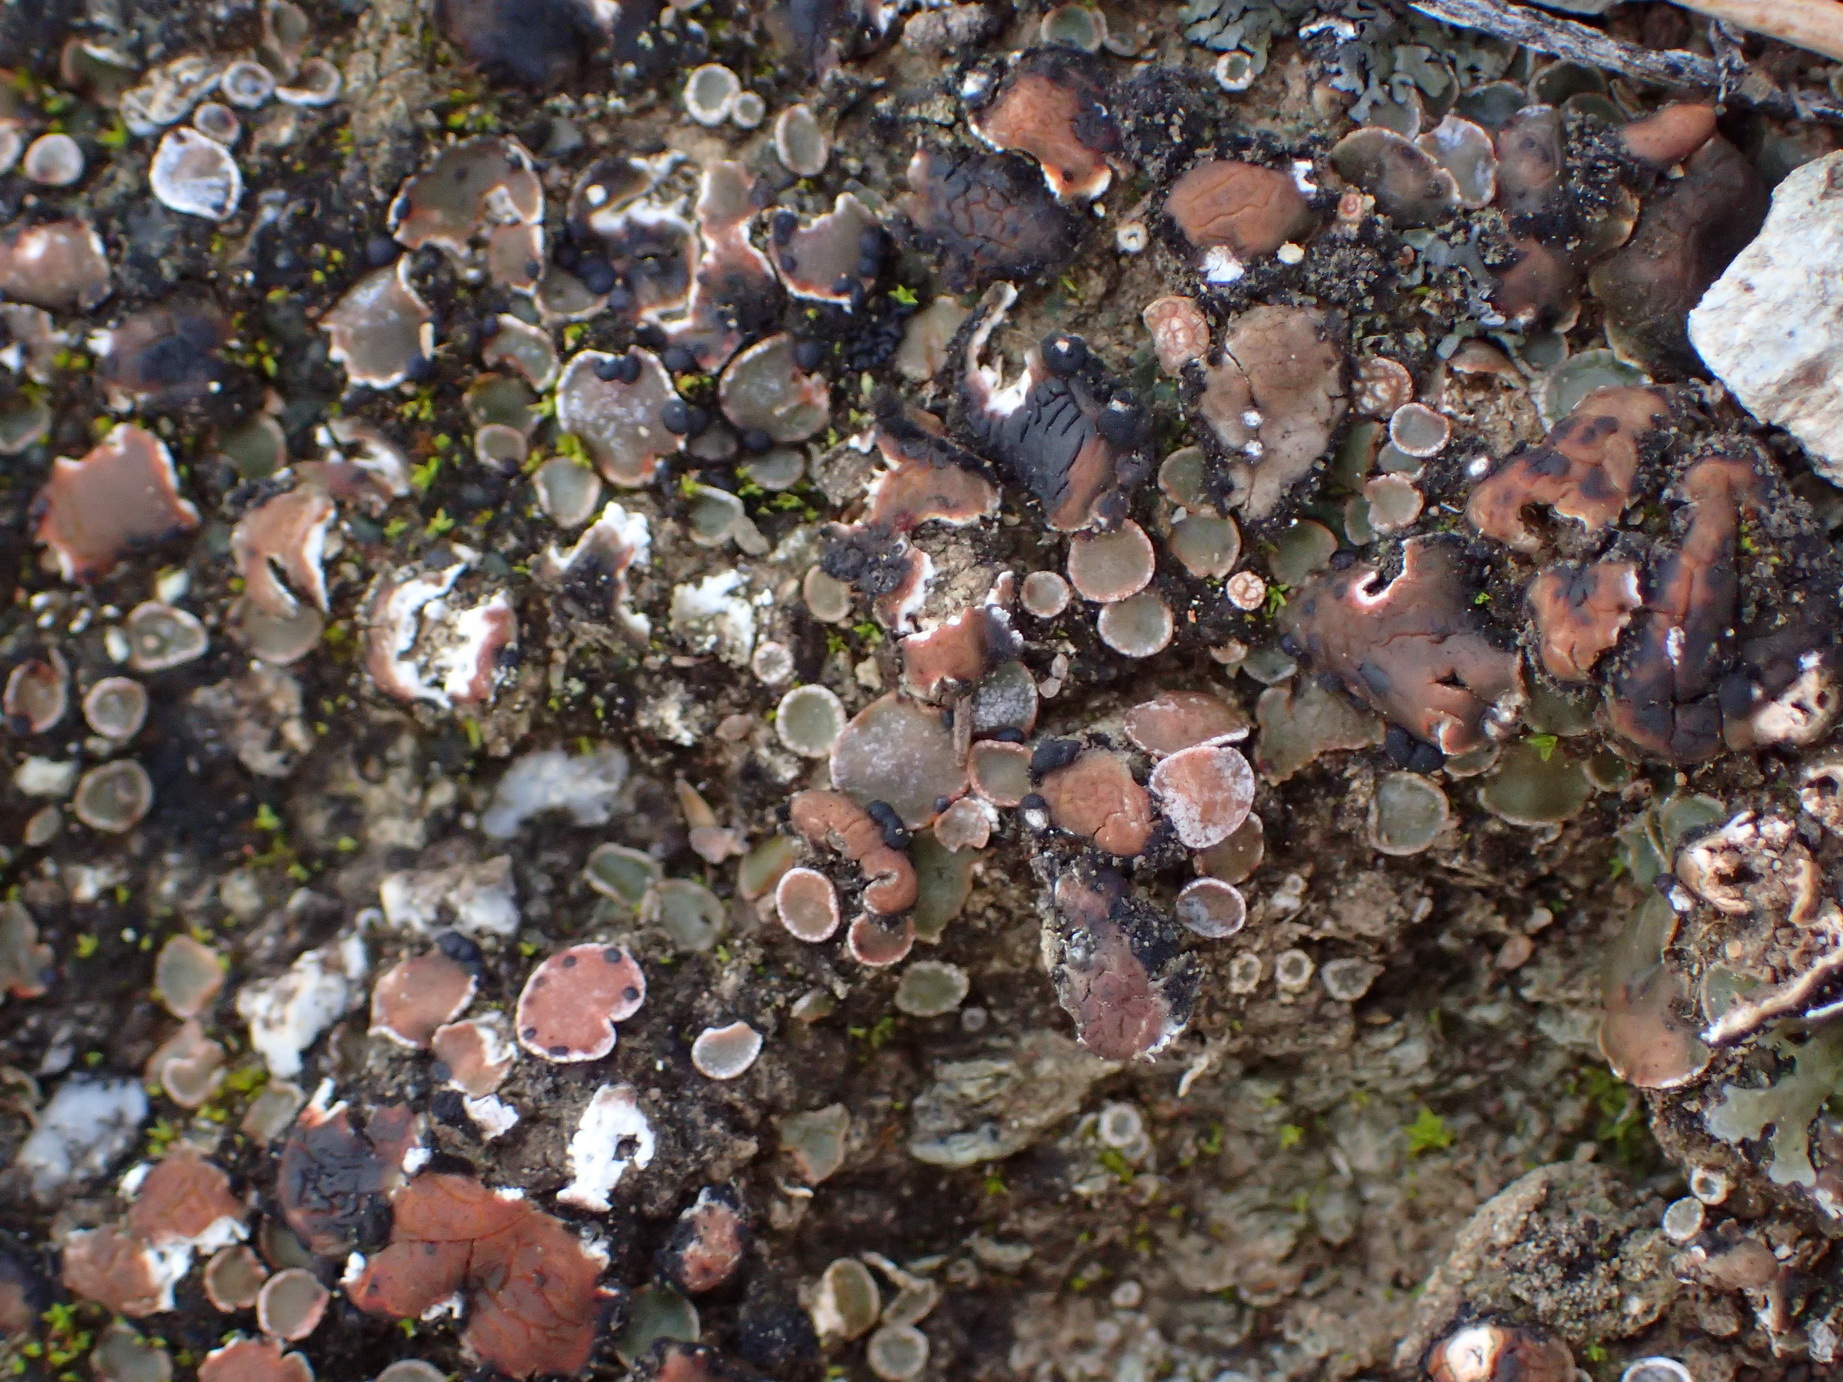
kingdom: Fungi
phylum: Ascomycota
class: Lecanoromycetes
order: Lecanorales
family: Psoraceae
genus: Psora
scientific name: Psora decipiens
